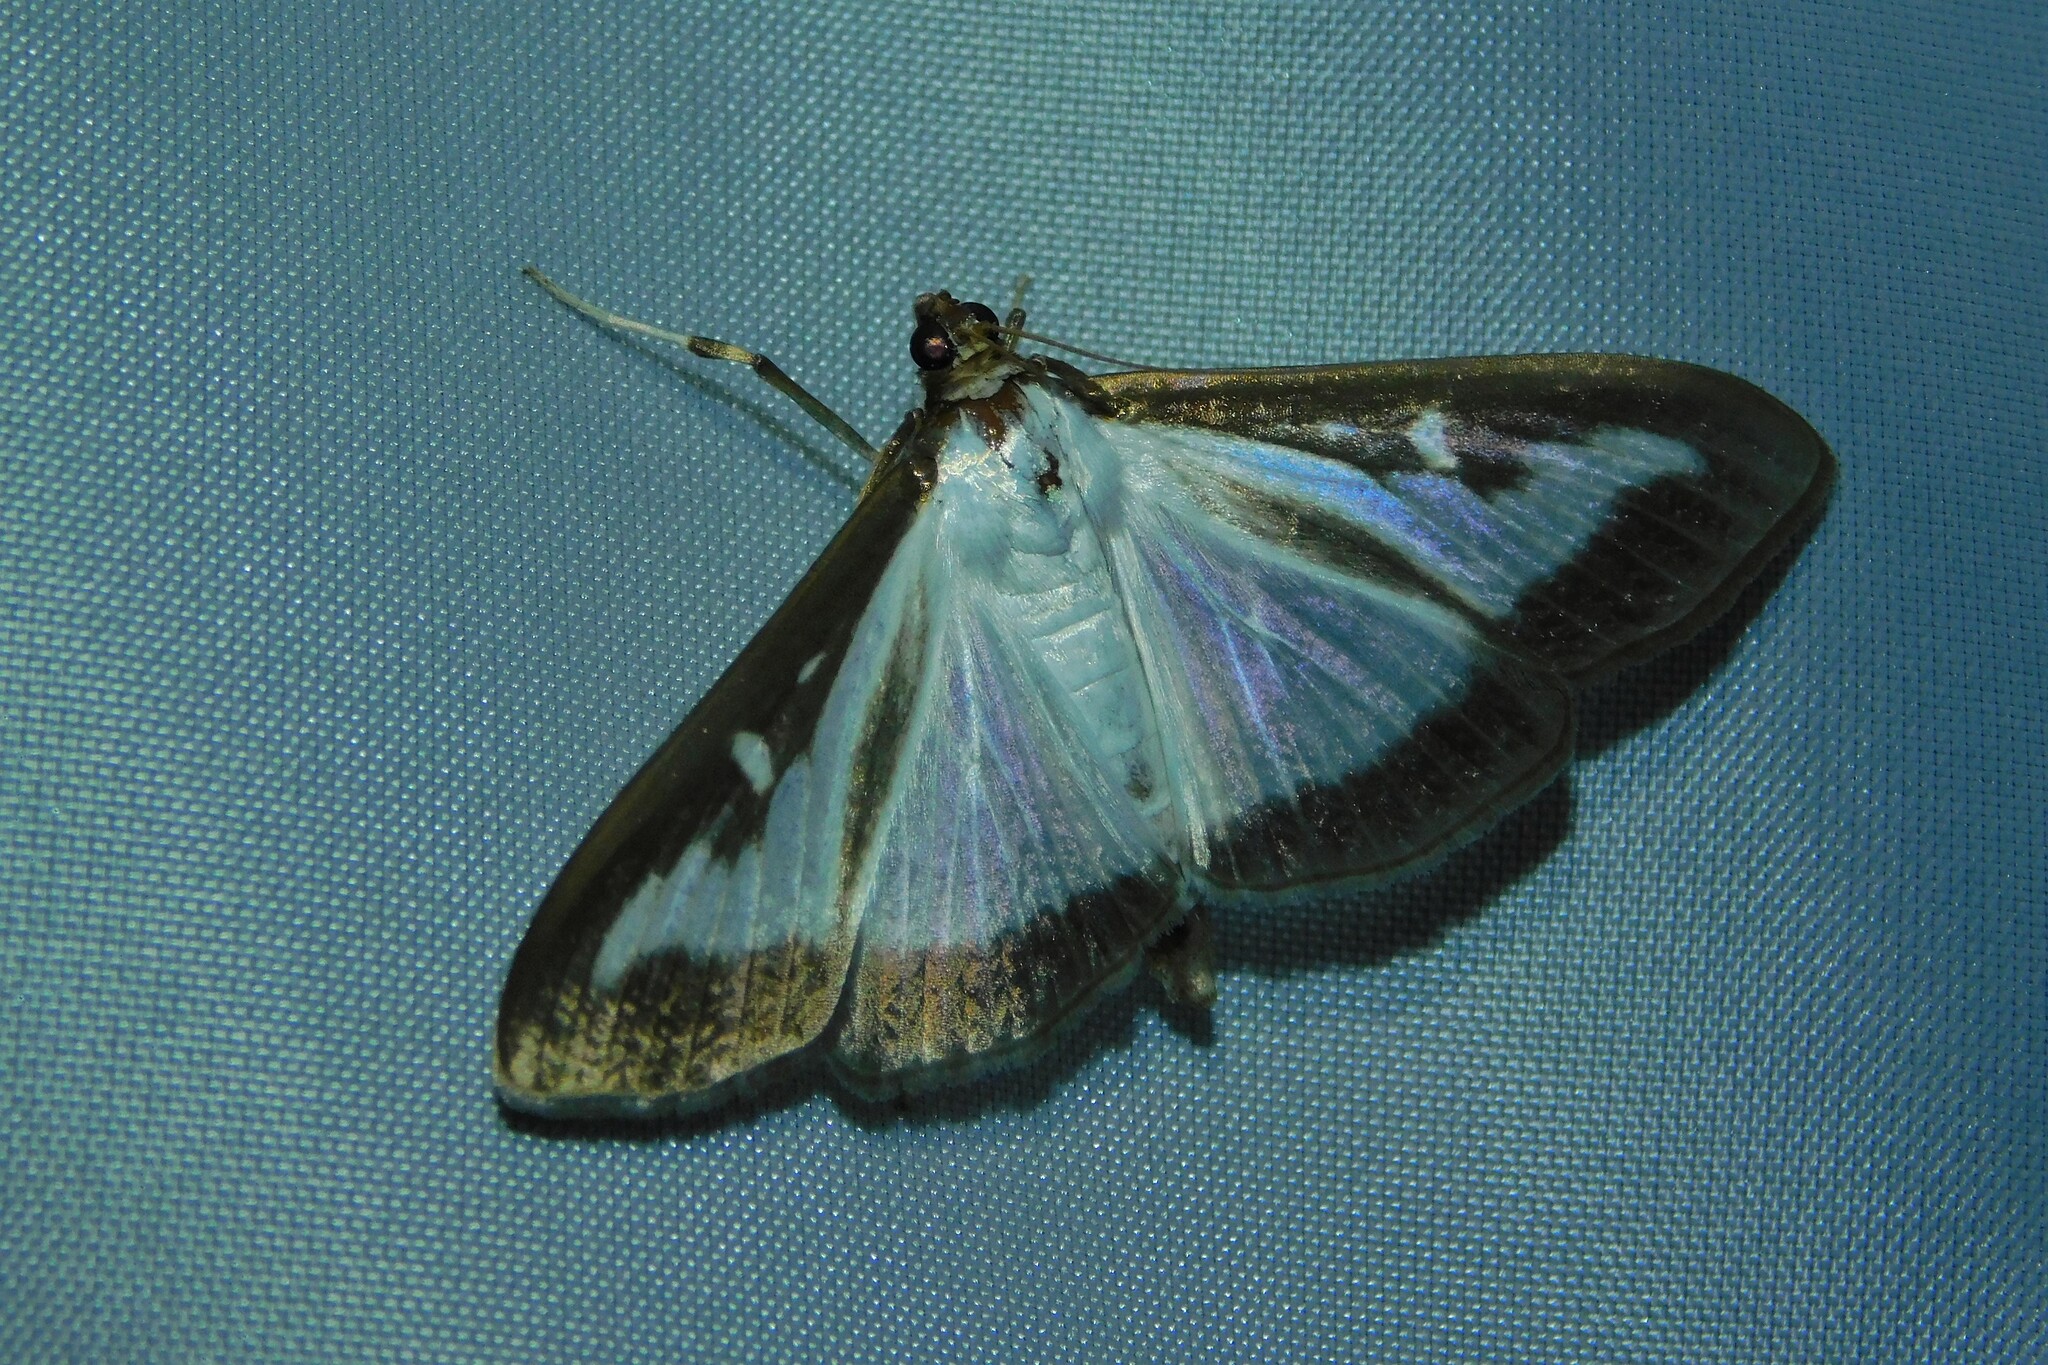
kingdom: Animalia
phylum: Arthropoda
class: Insecta
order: Lepidoptera
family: Crambidae
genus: Cydalima
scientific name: Cydalima perspectalis
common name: Box tree moth
